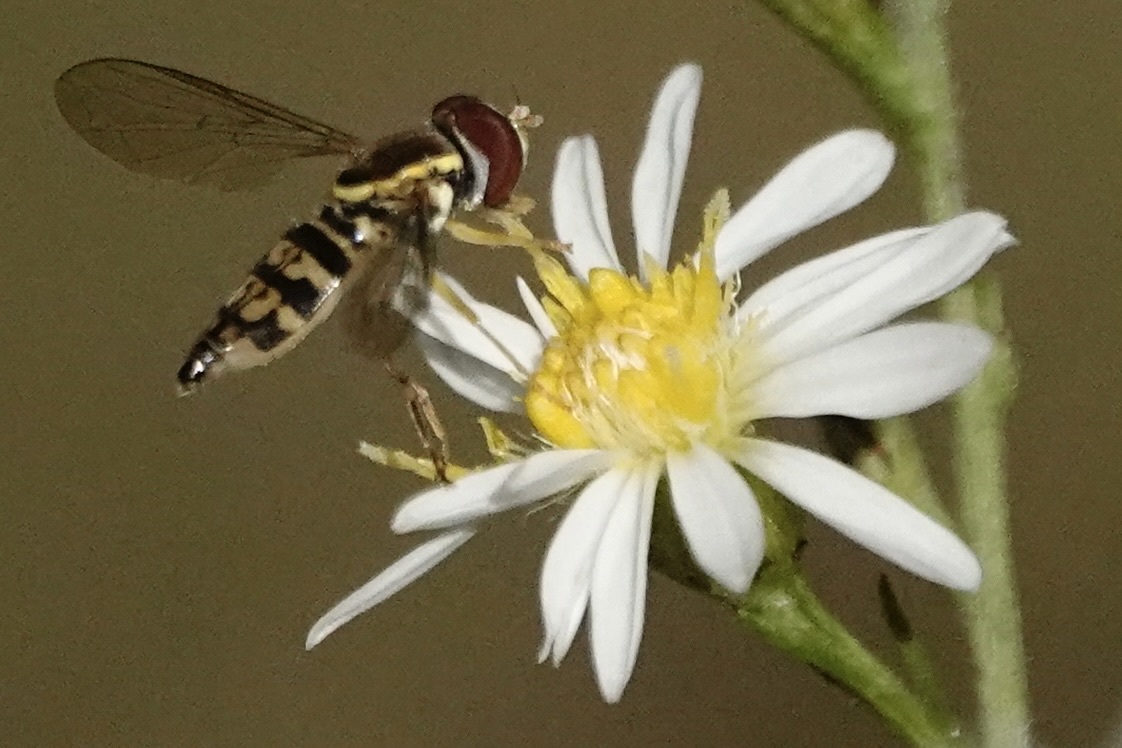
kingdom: Animalia
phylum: Arthropoda
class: Insecta
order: Diptera
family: Syrphidae
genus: Toxomerus
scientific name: Toxomerus geminatus
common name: Eastern calligrapher
